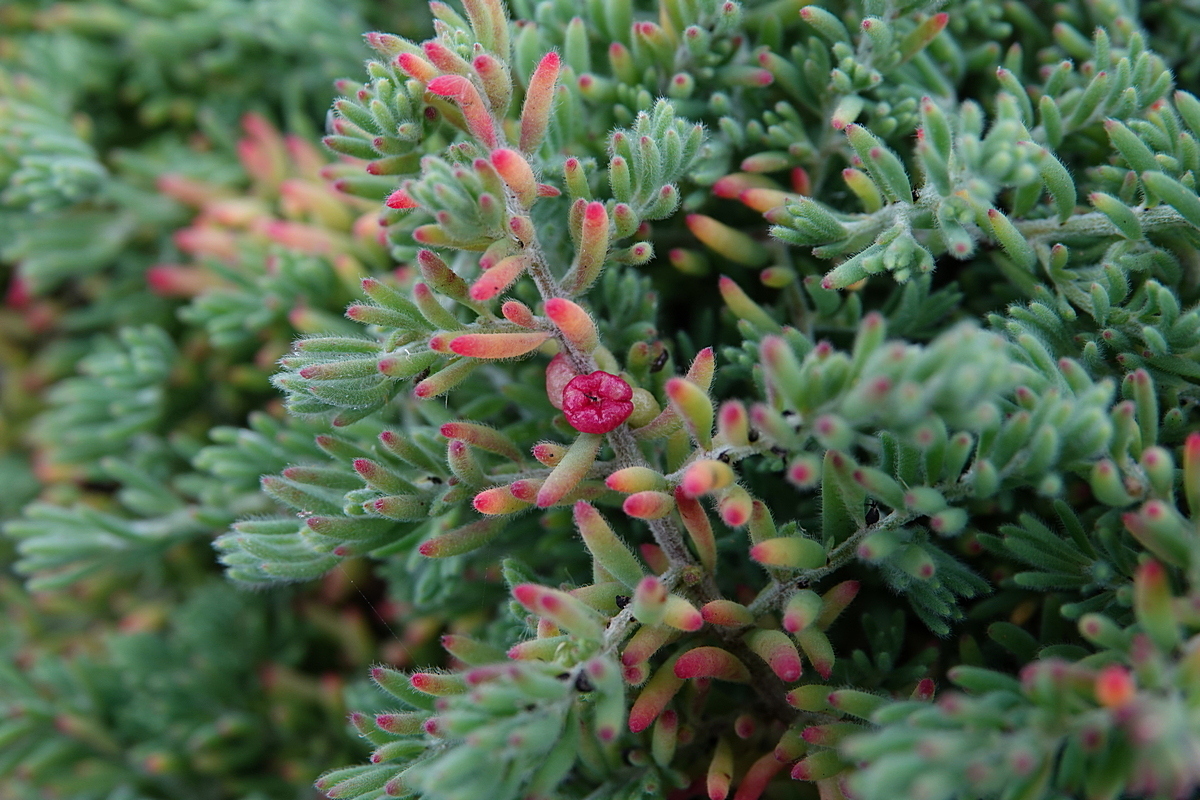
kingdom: Plantae
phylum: Tracheophyta
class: Magnoliopsida
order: Caryophyllales
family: Amaranthaceae
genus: Enchylaena
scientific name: Enchylaena tomentosa
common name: Ruby saltbush
